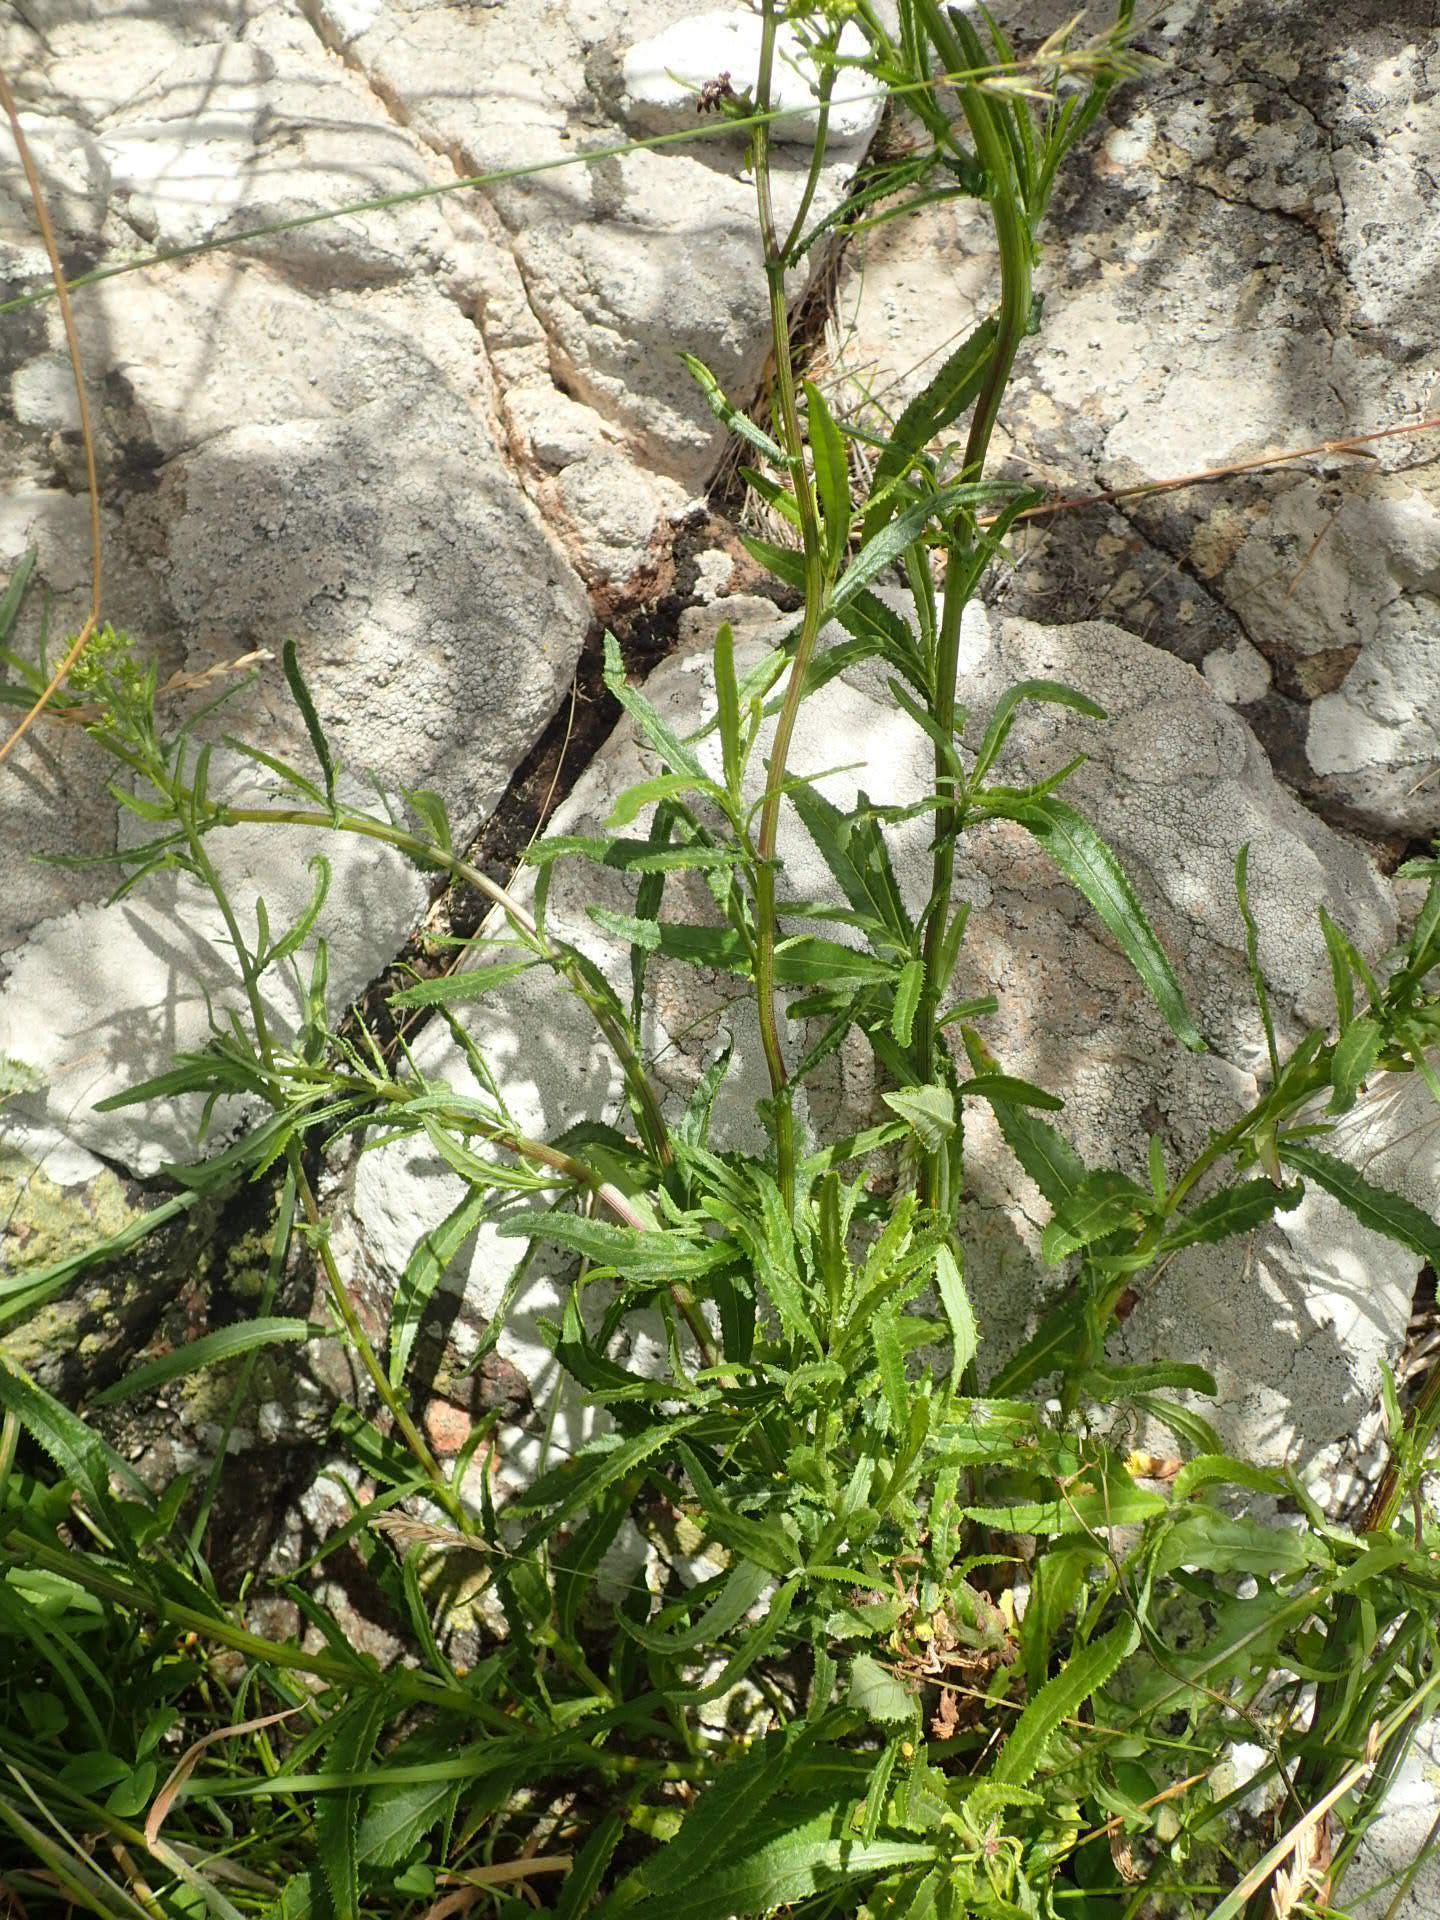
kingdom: Plantae
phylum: Tracheophyta
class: Magnoliopsida
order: Asterales
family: Asteraceae
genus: Senecio
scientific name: Senecio minimus
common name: Toothed fireweed
